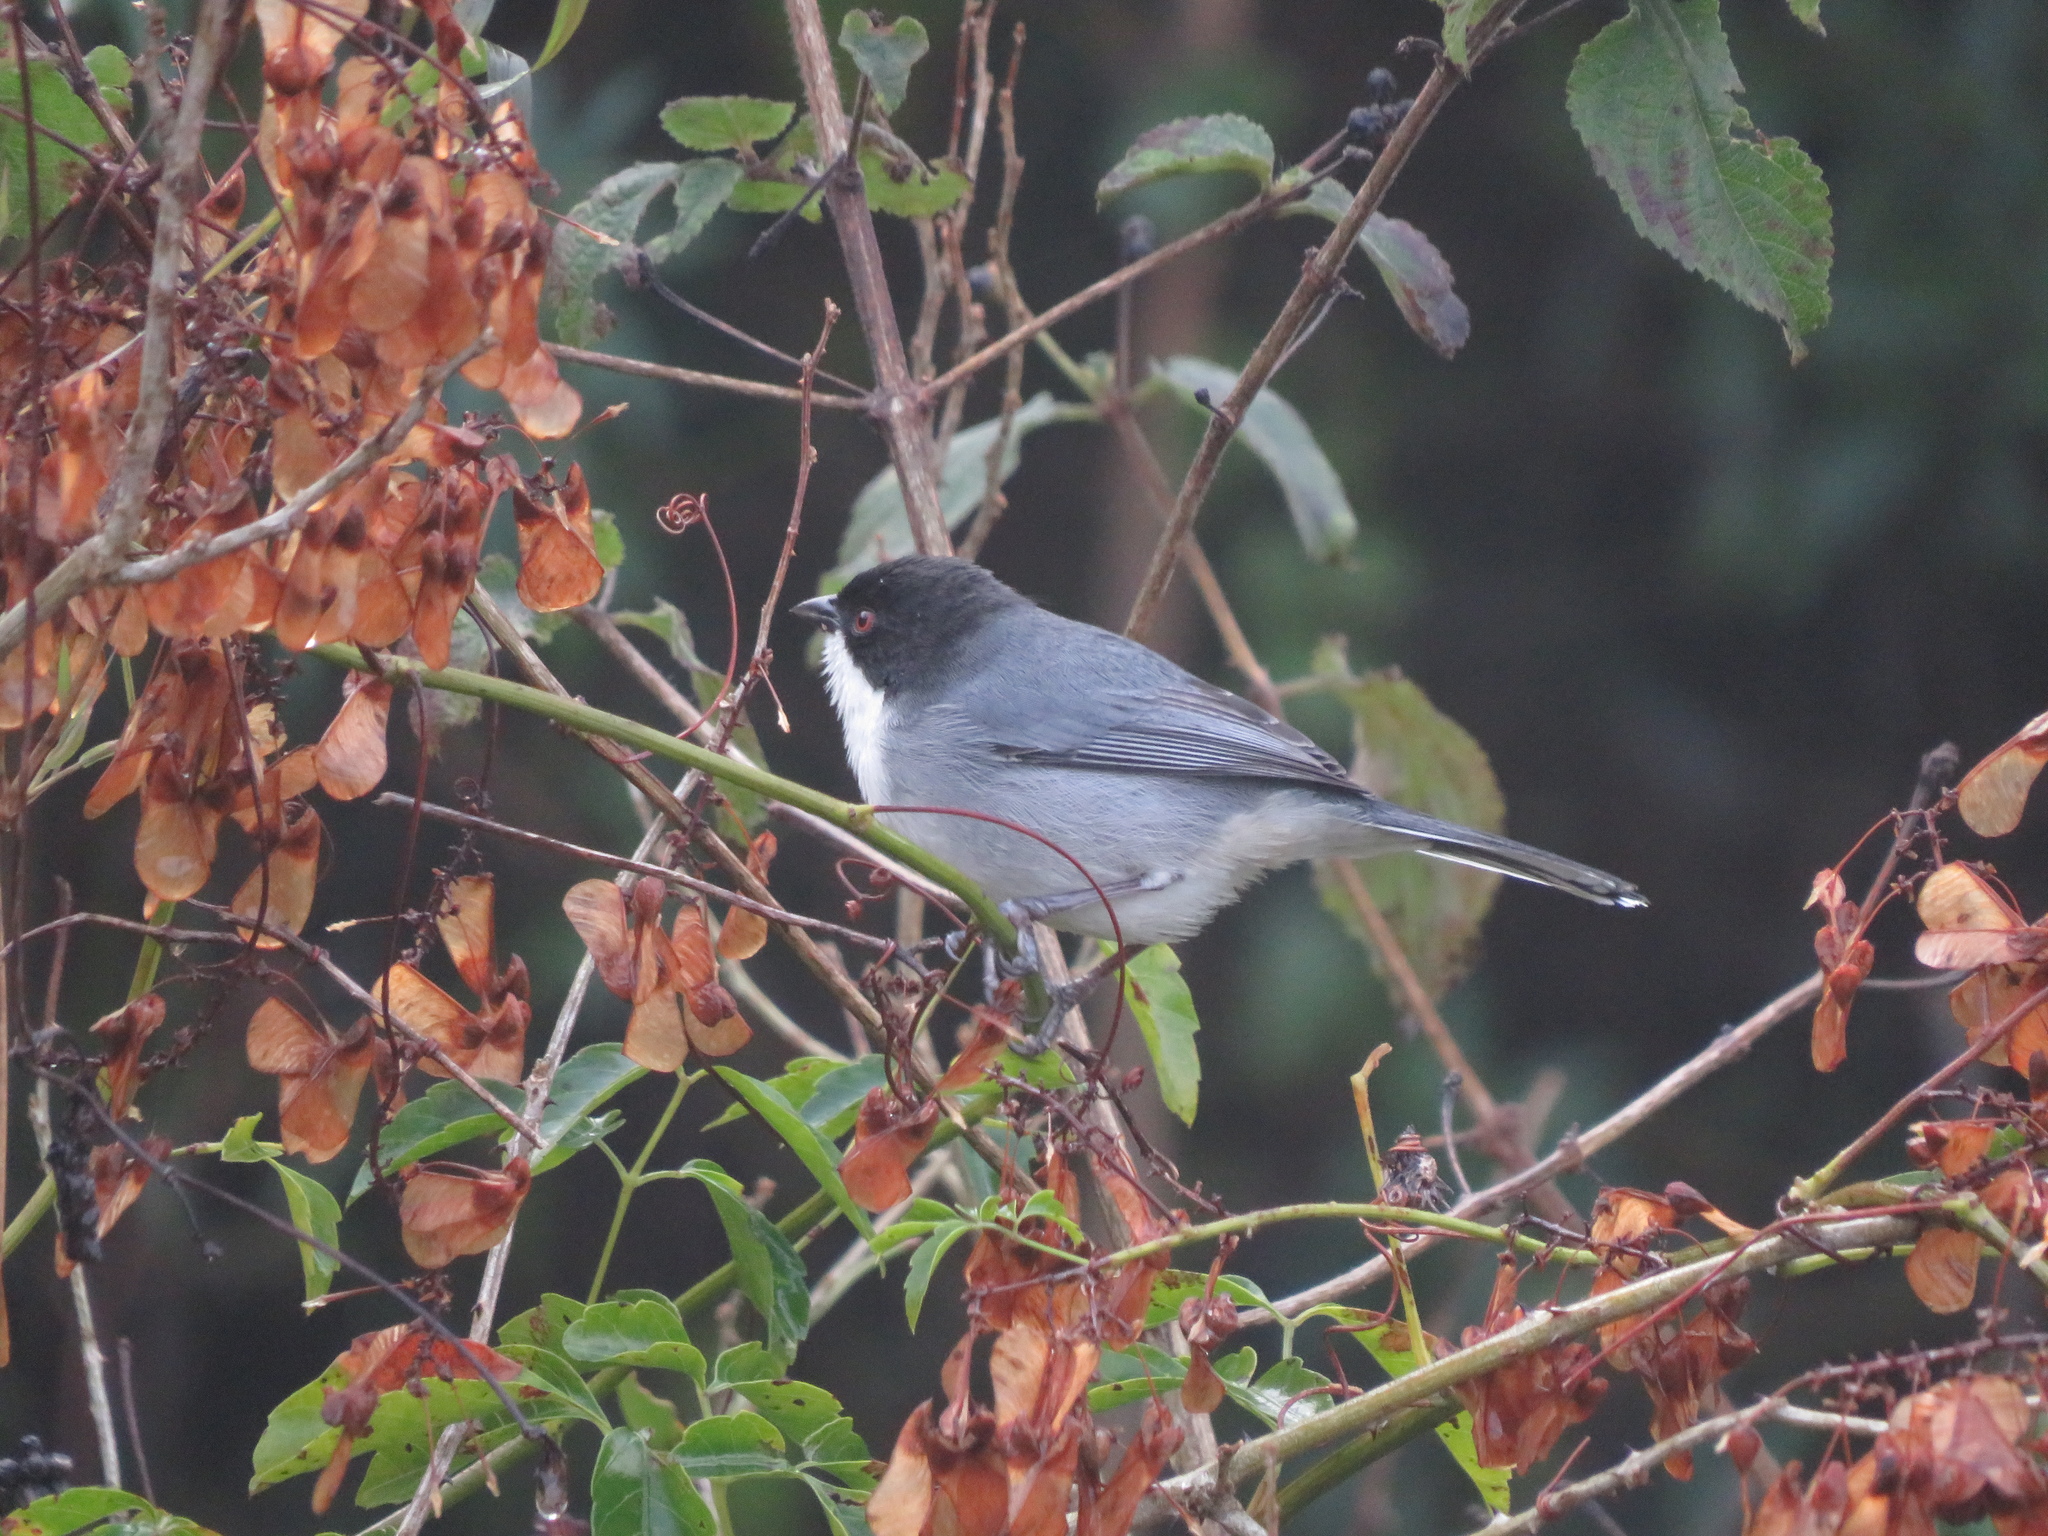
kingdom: Animalia
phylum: Chordata
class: Aves
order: Passeriformes
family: Thraupidae
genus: Microspingus
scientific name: Microspingus melanoleucus
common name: Black-capped warbling-finch
